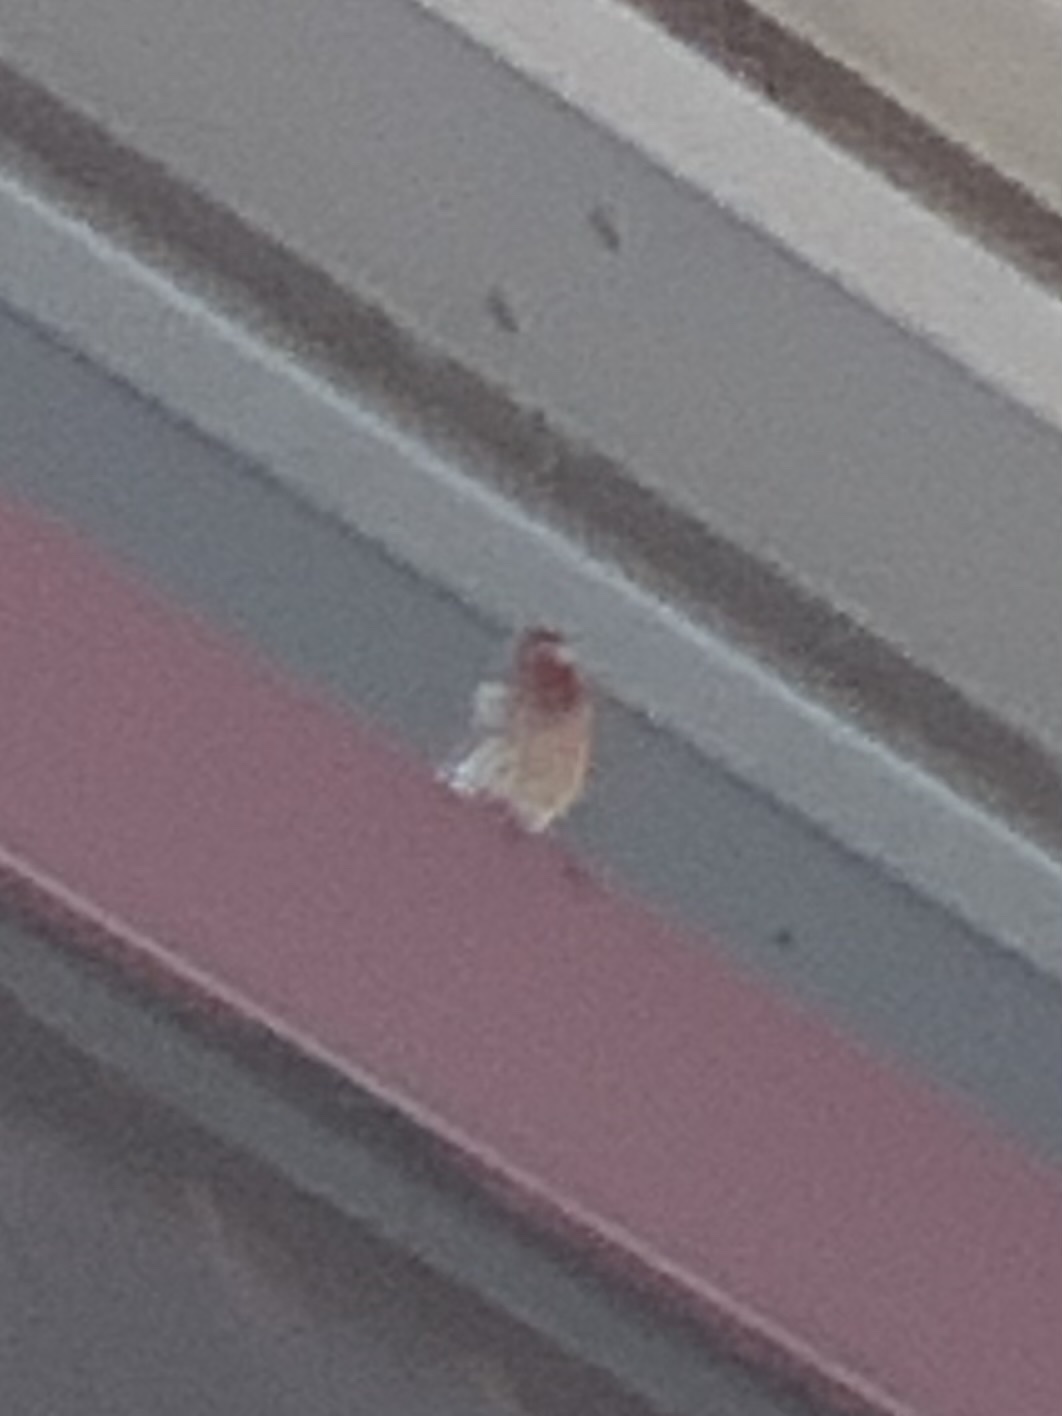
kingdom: Animalia
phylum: Chordata
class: Aves
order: Passeriformes
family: Fringillidae
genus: Haemorhous
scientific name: Haemorhous mexicanus
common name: House finch
